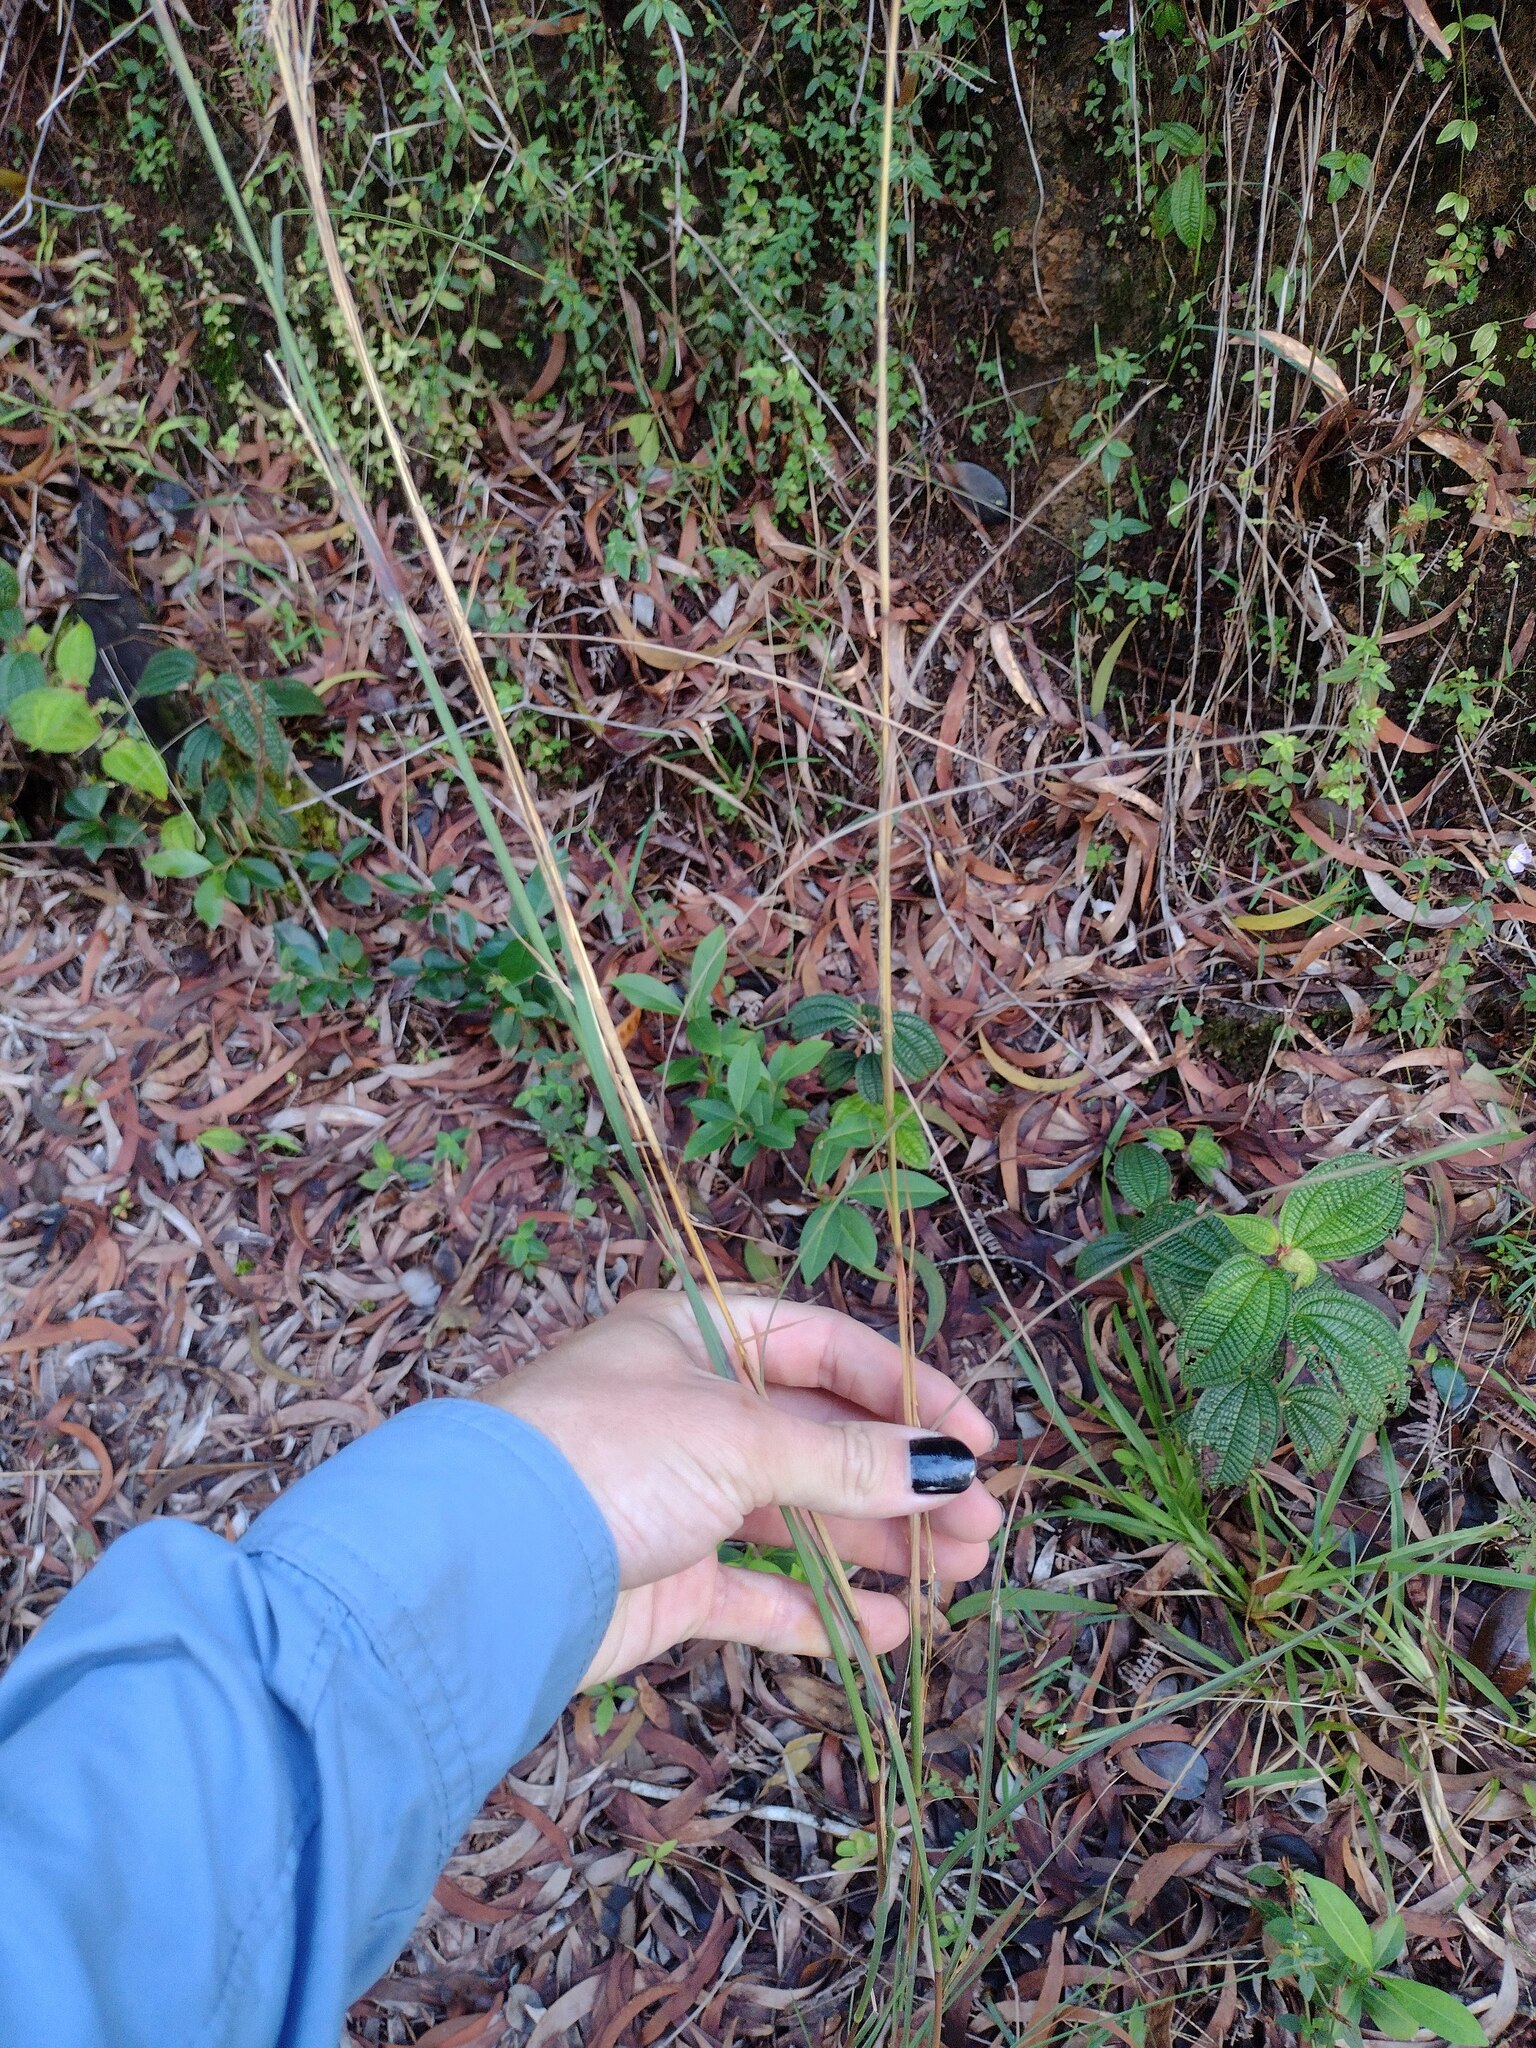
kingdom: Plantae
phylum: Tracheophyta
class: Liliopsida
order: Poales
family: Poaceae
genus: Andropogon
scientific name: Andropogon virginicus
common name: Broomsedge bluestem
